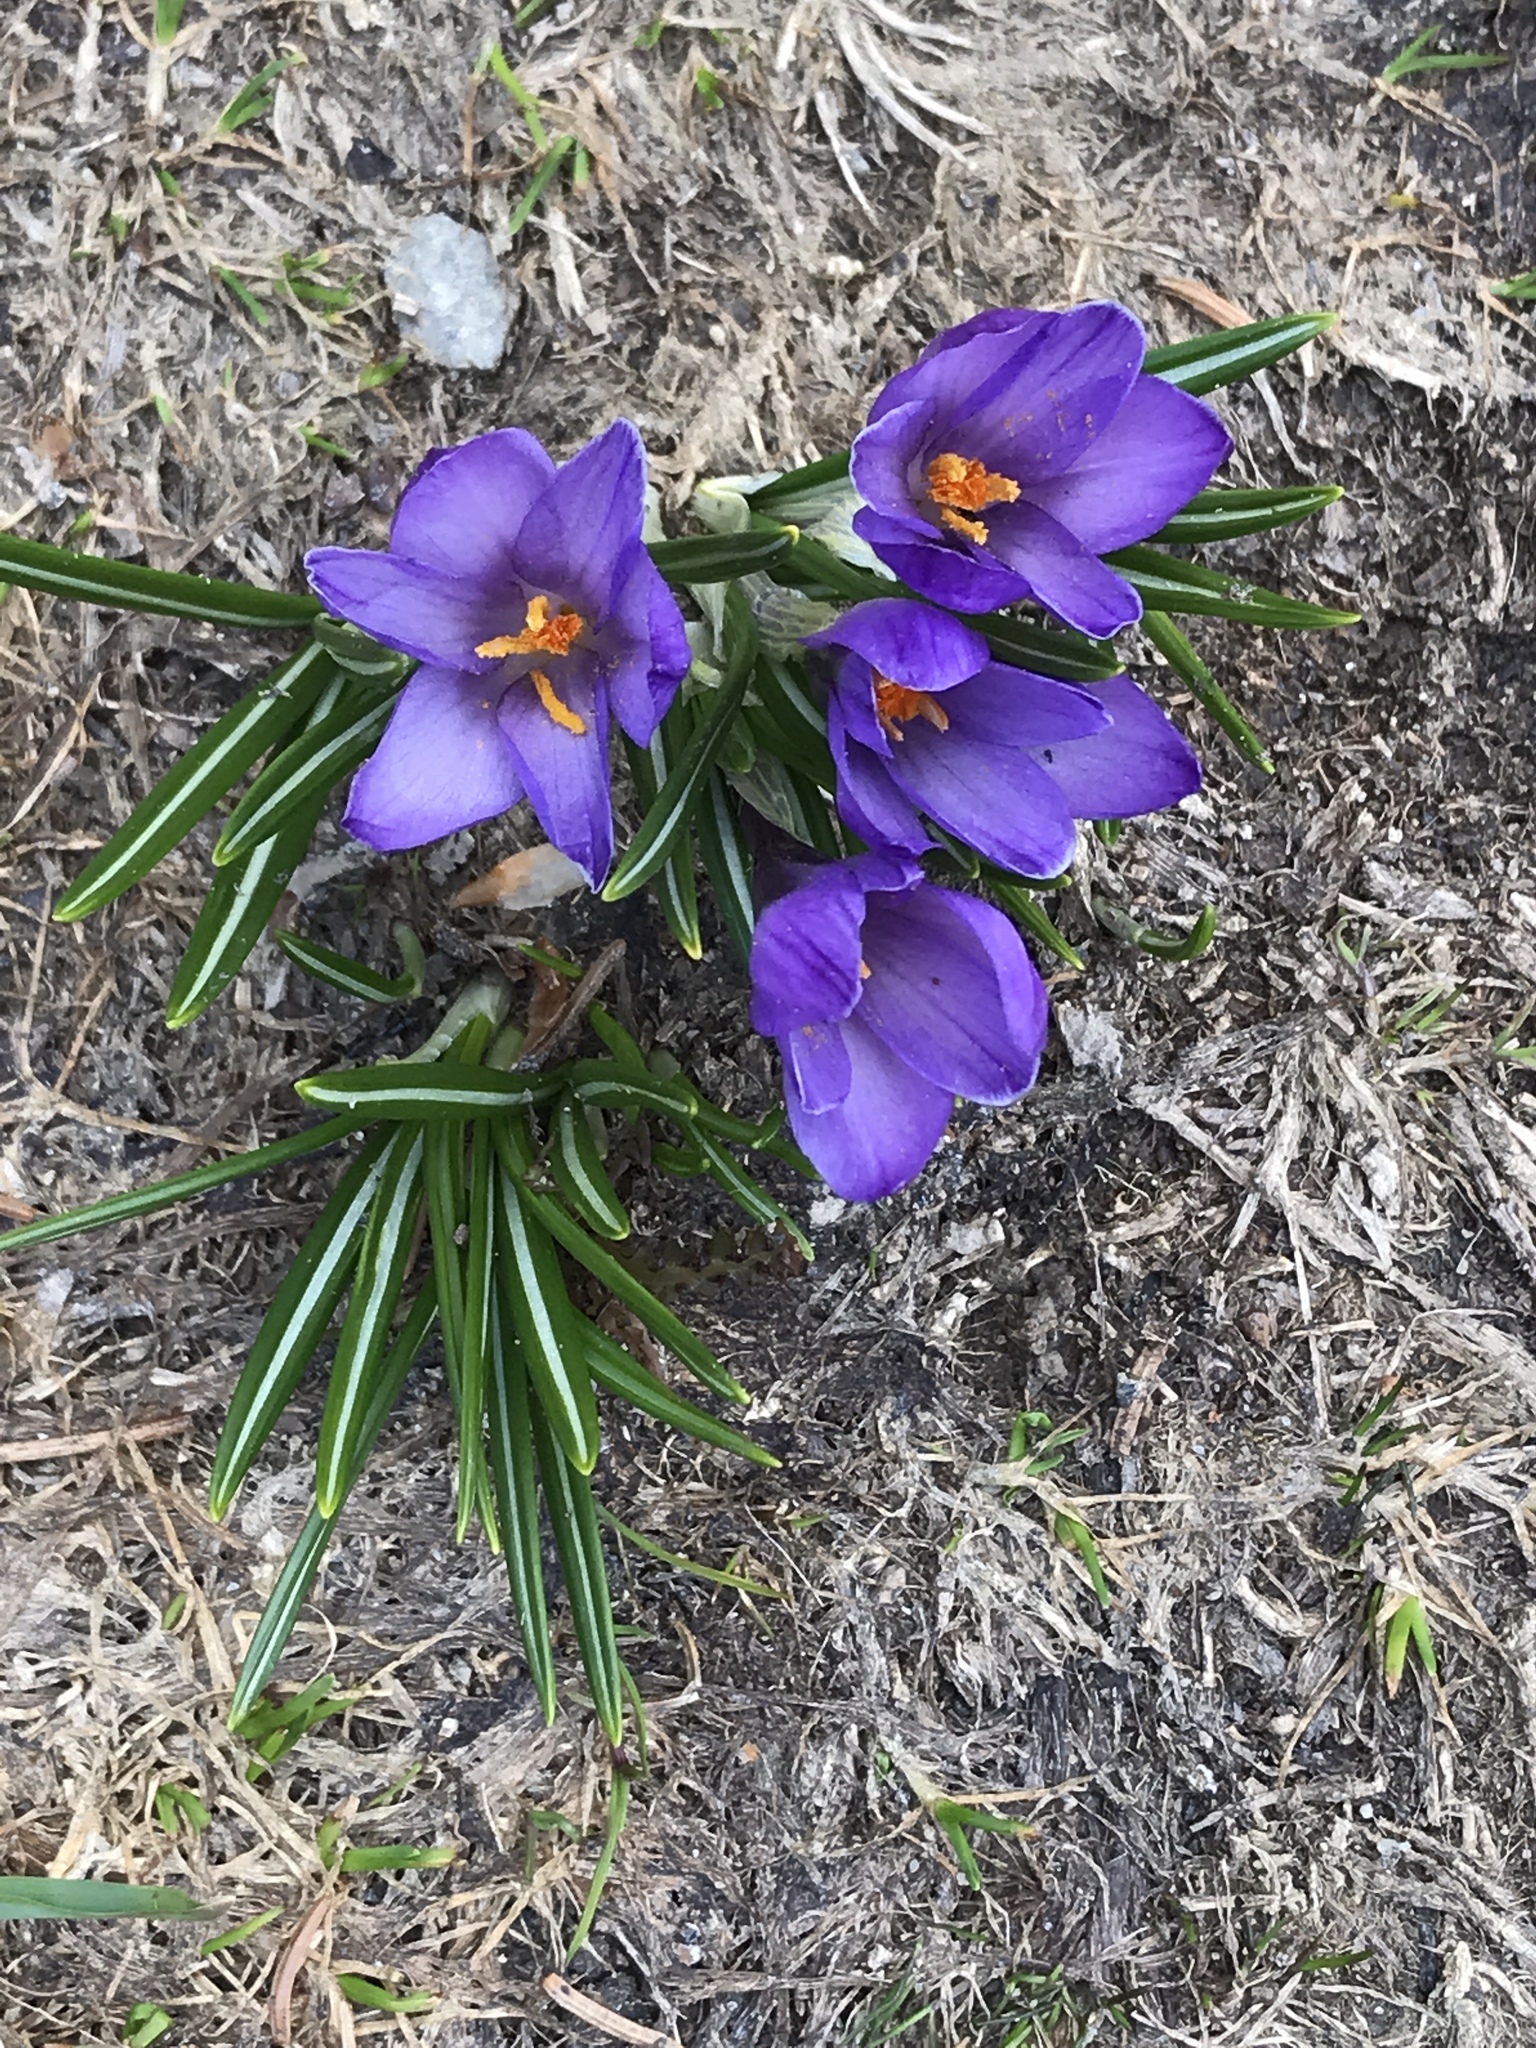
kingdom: Plantae
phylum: Tracheophyta
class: Liliopsida
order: Asparagales
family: Iridaceae
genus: Crocus
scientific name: Crocus vernus
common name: Spring crocus
